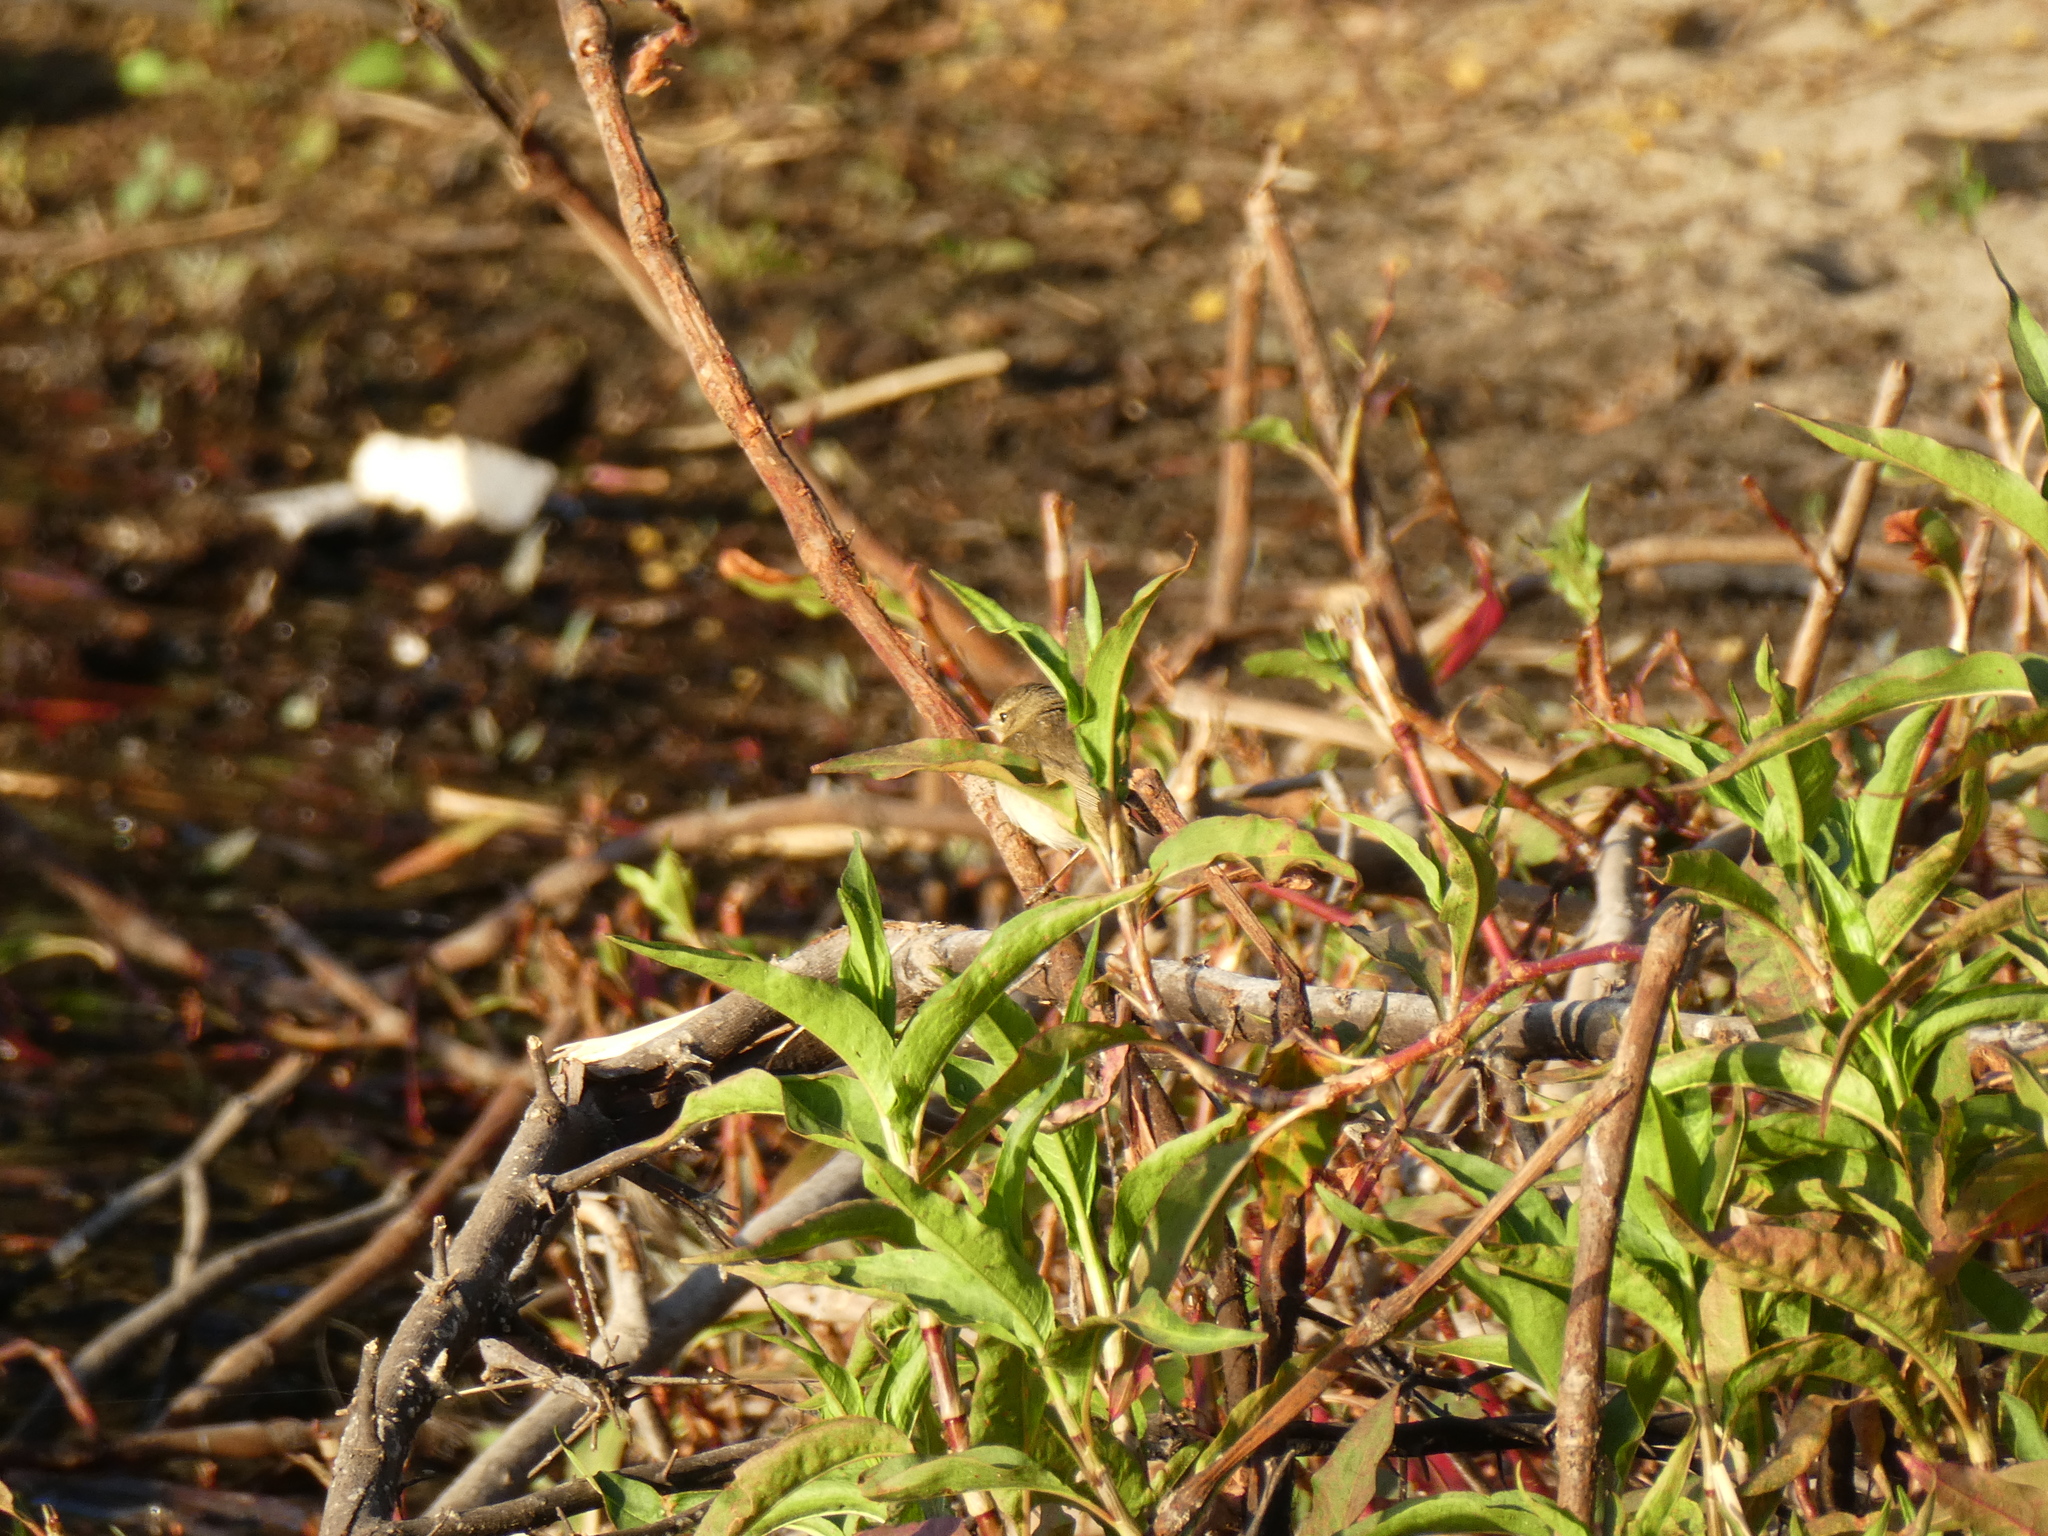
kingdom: Animalia
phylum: Chordata
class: Aves
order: Passeriformes
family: Phylloscopidae
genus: Phylloscopus
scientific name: Phylloscopus collybita
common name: Common chiffchaff
